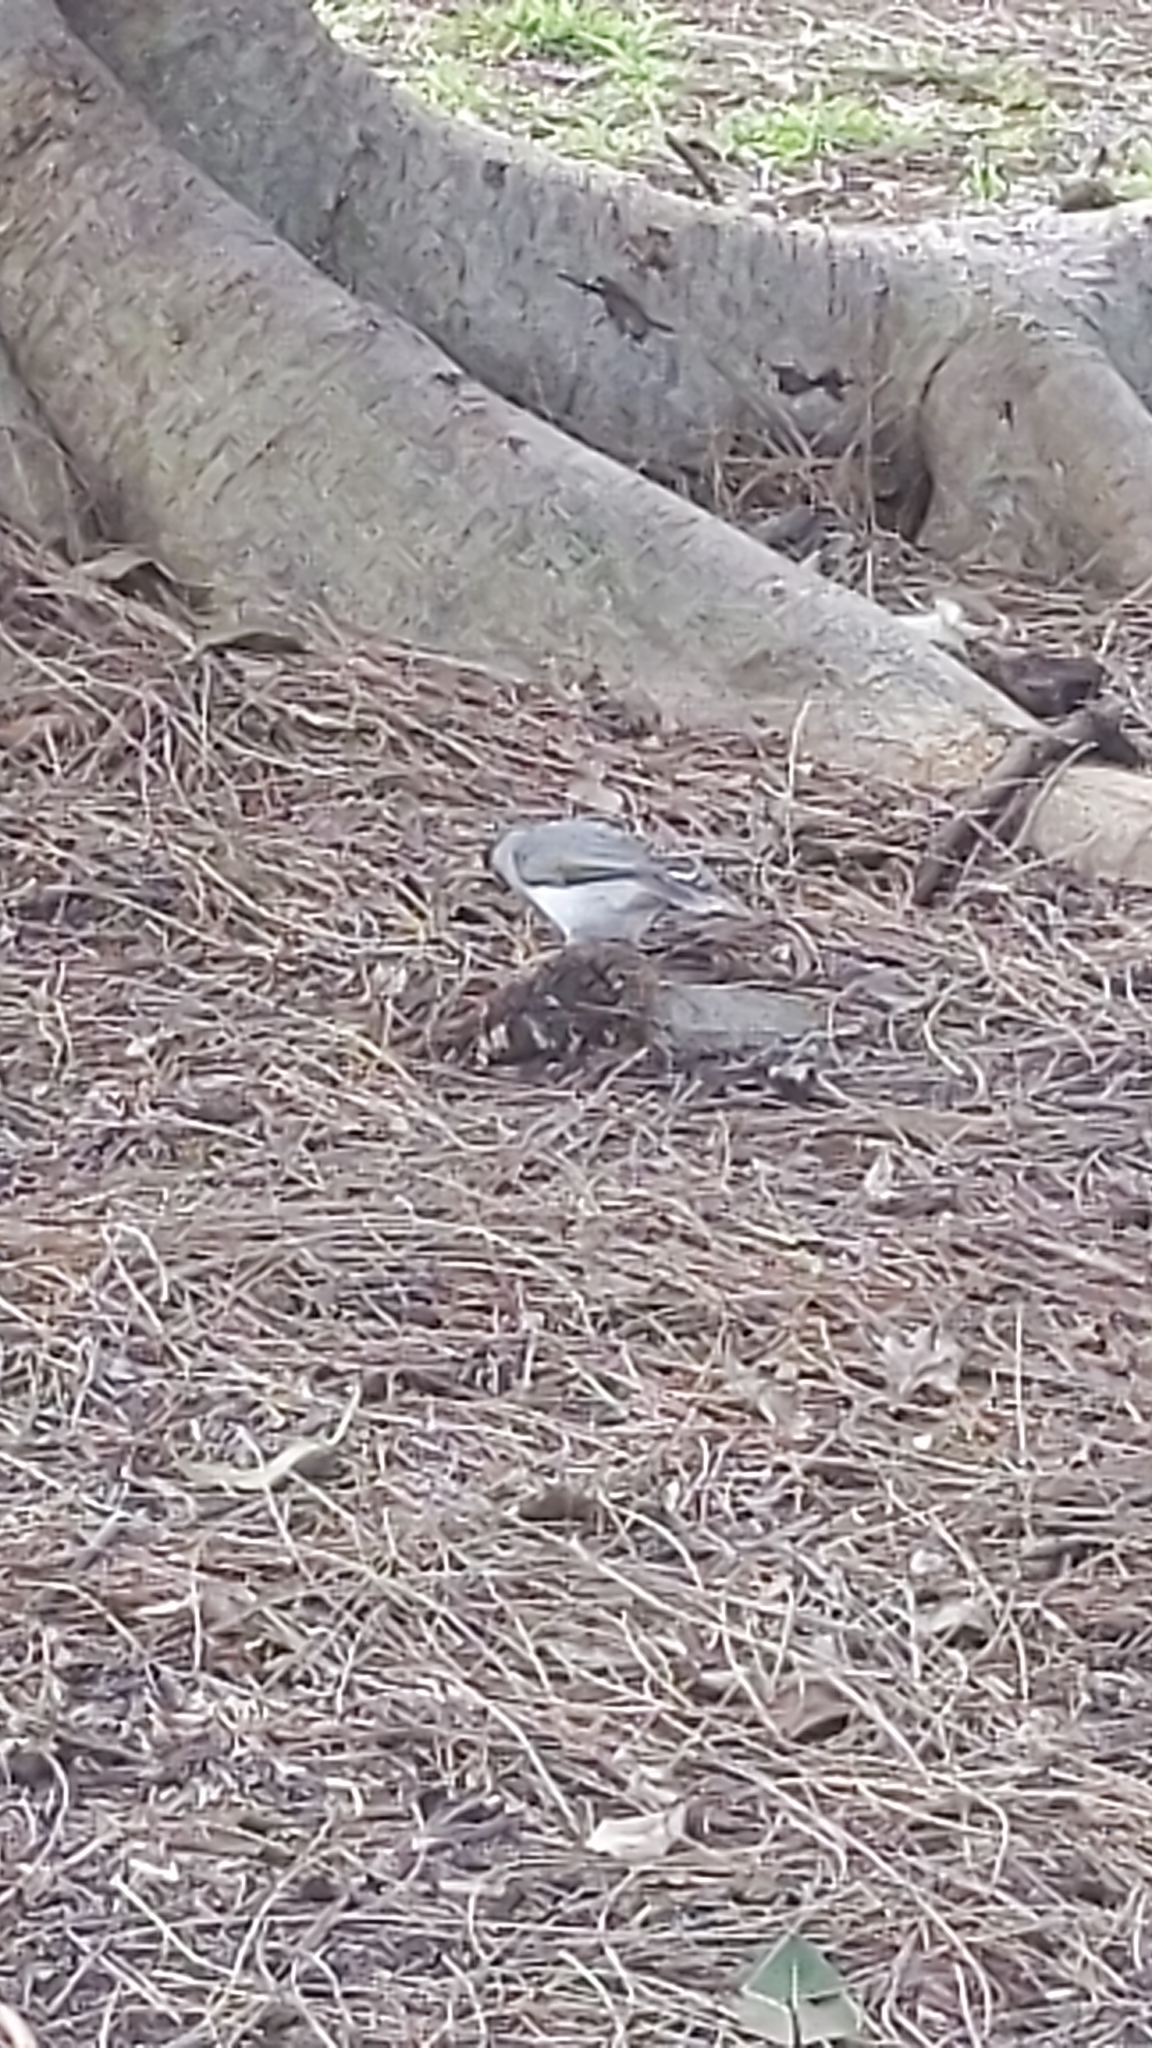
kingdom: Animalia
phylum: Chordata
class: Aves
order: Passeriformes
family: Meliphagidae
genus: Manorina
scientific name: Manorina melanocephala
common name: Noisy miner
